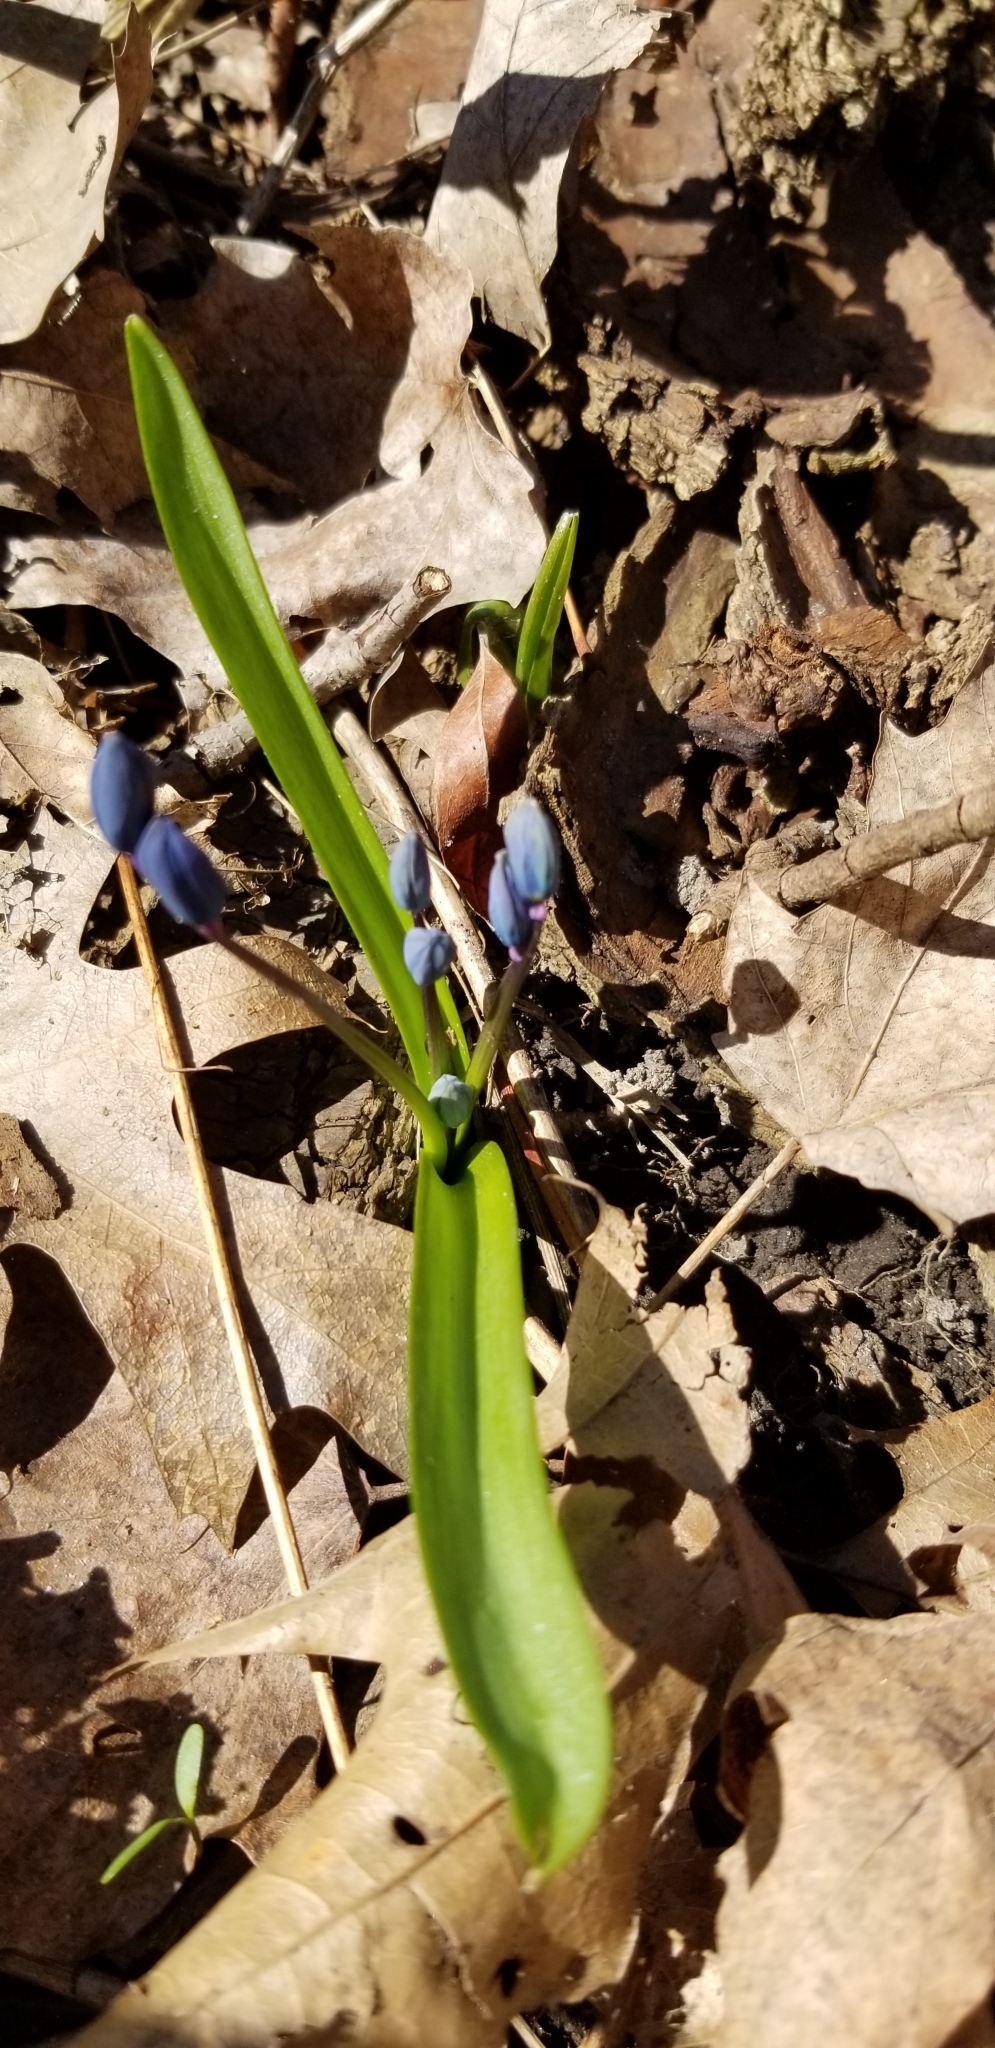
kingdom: Plantae
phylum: Tracheophyta
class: Liliopsida
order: Asparagales
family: Asparagaceae
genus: Scilla
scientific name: Scilla siberica
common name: Siberian squill
